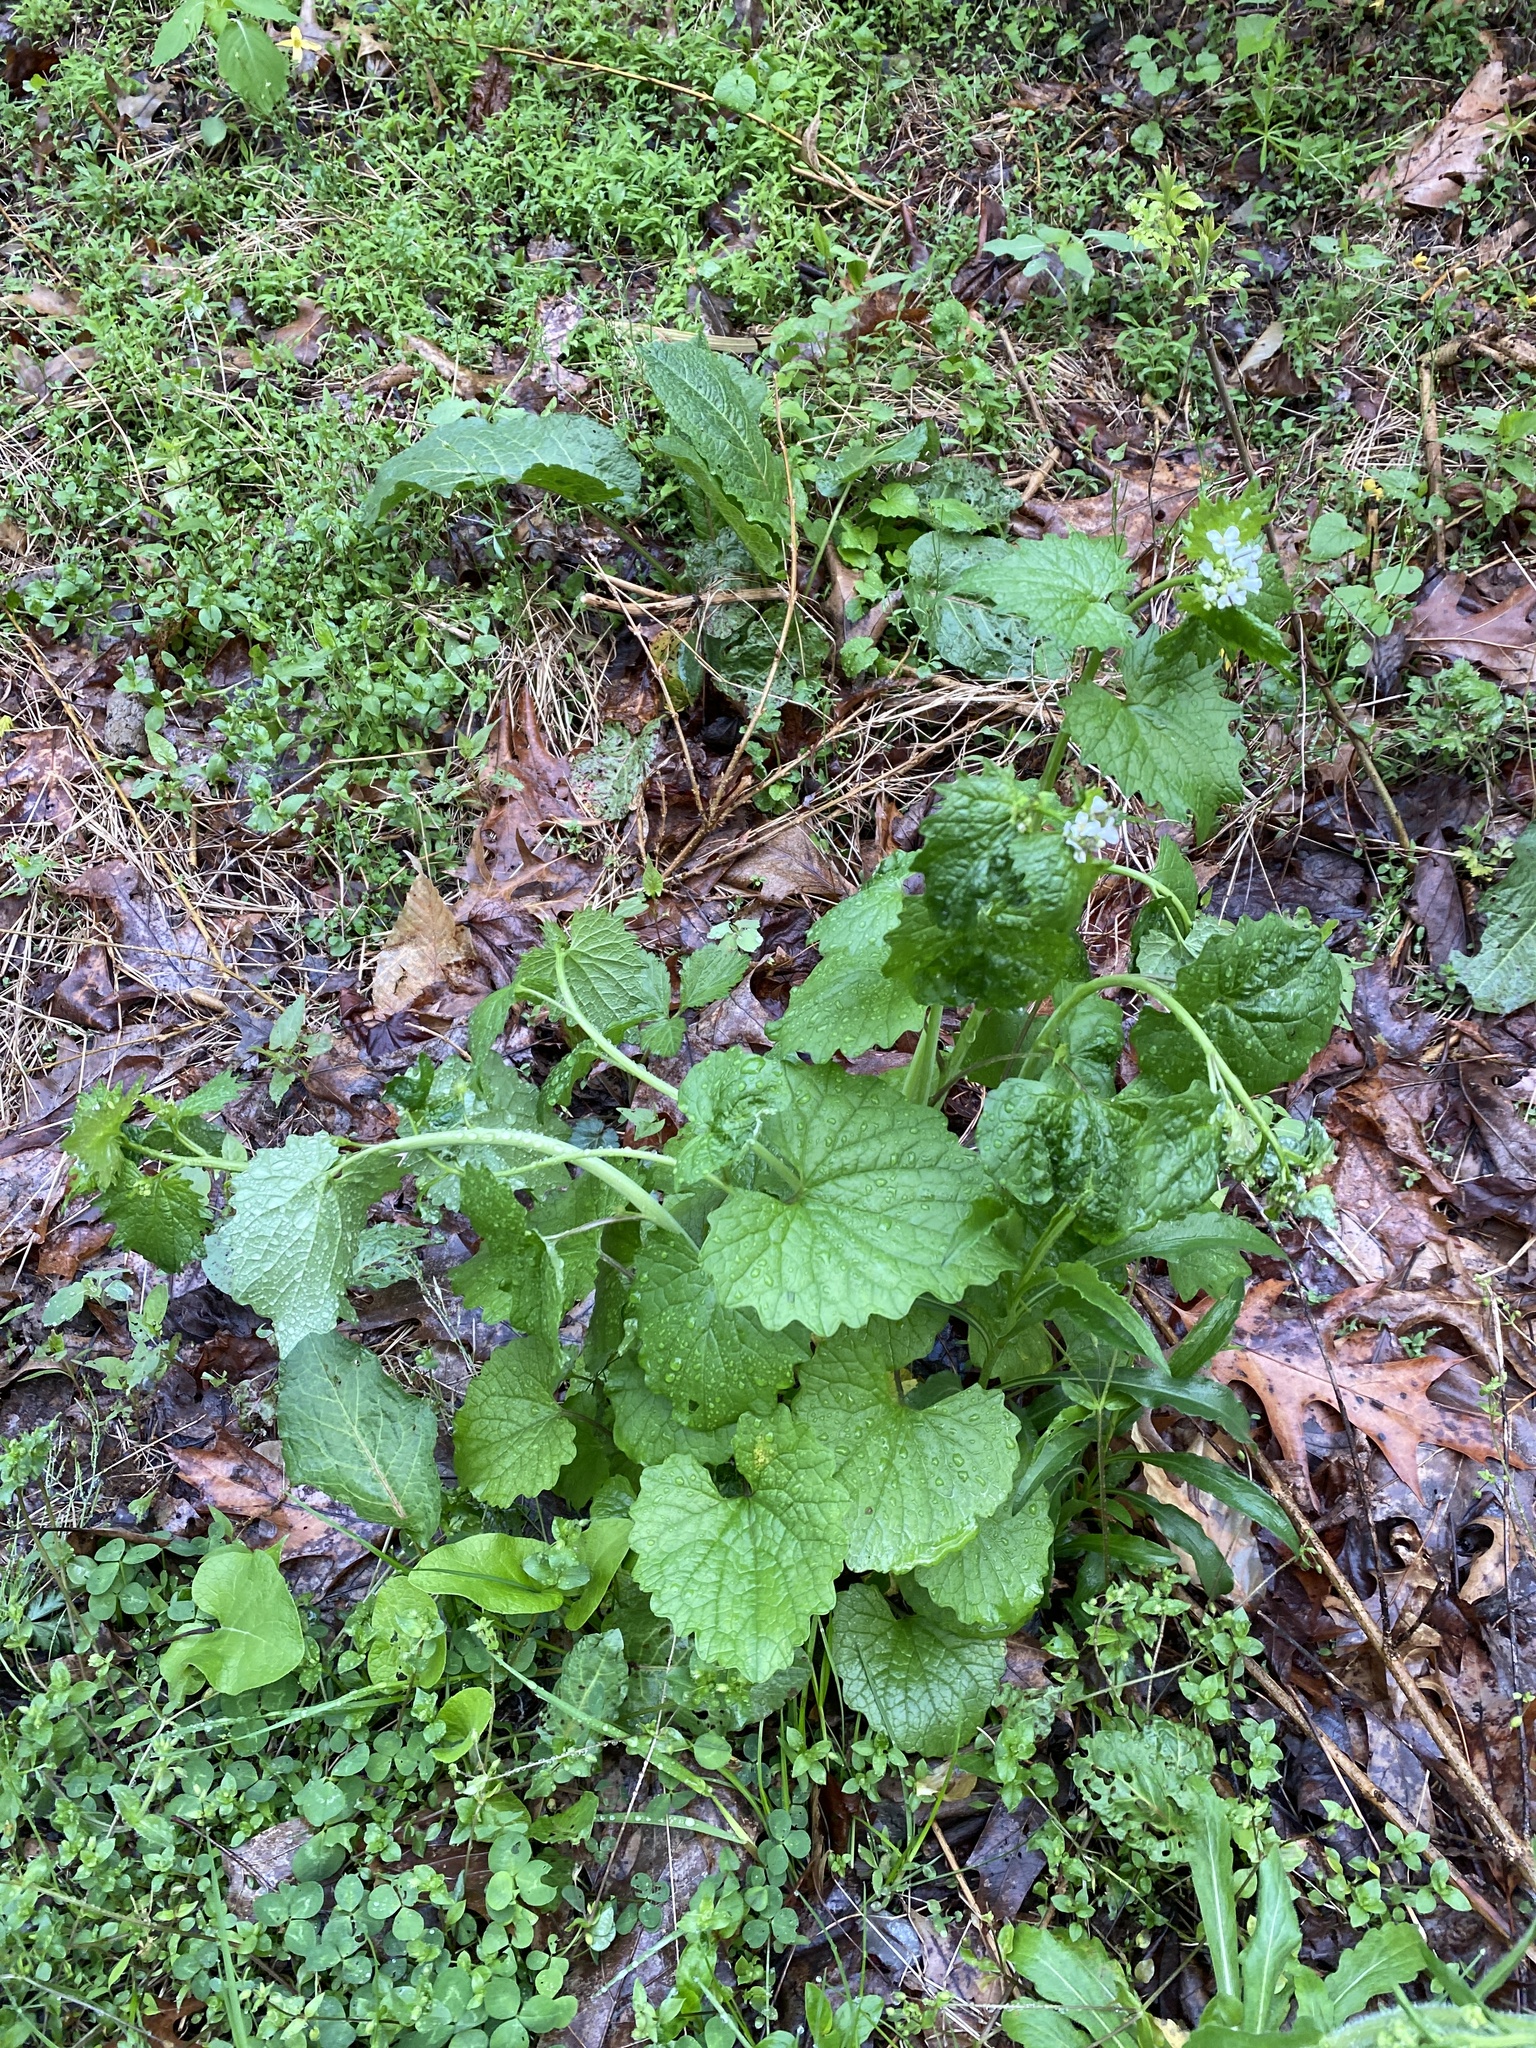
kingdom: Plantae
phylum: Tracheophyta
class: Magnoliopsida
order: Brassicales
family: Brassicaceae
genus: Alliaria
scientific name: Alliaria petiolata
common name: Garlic mustard
